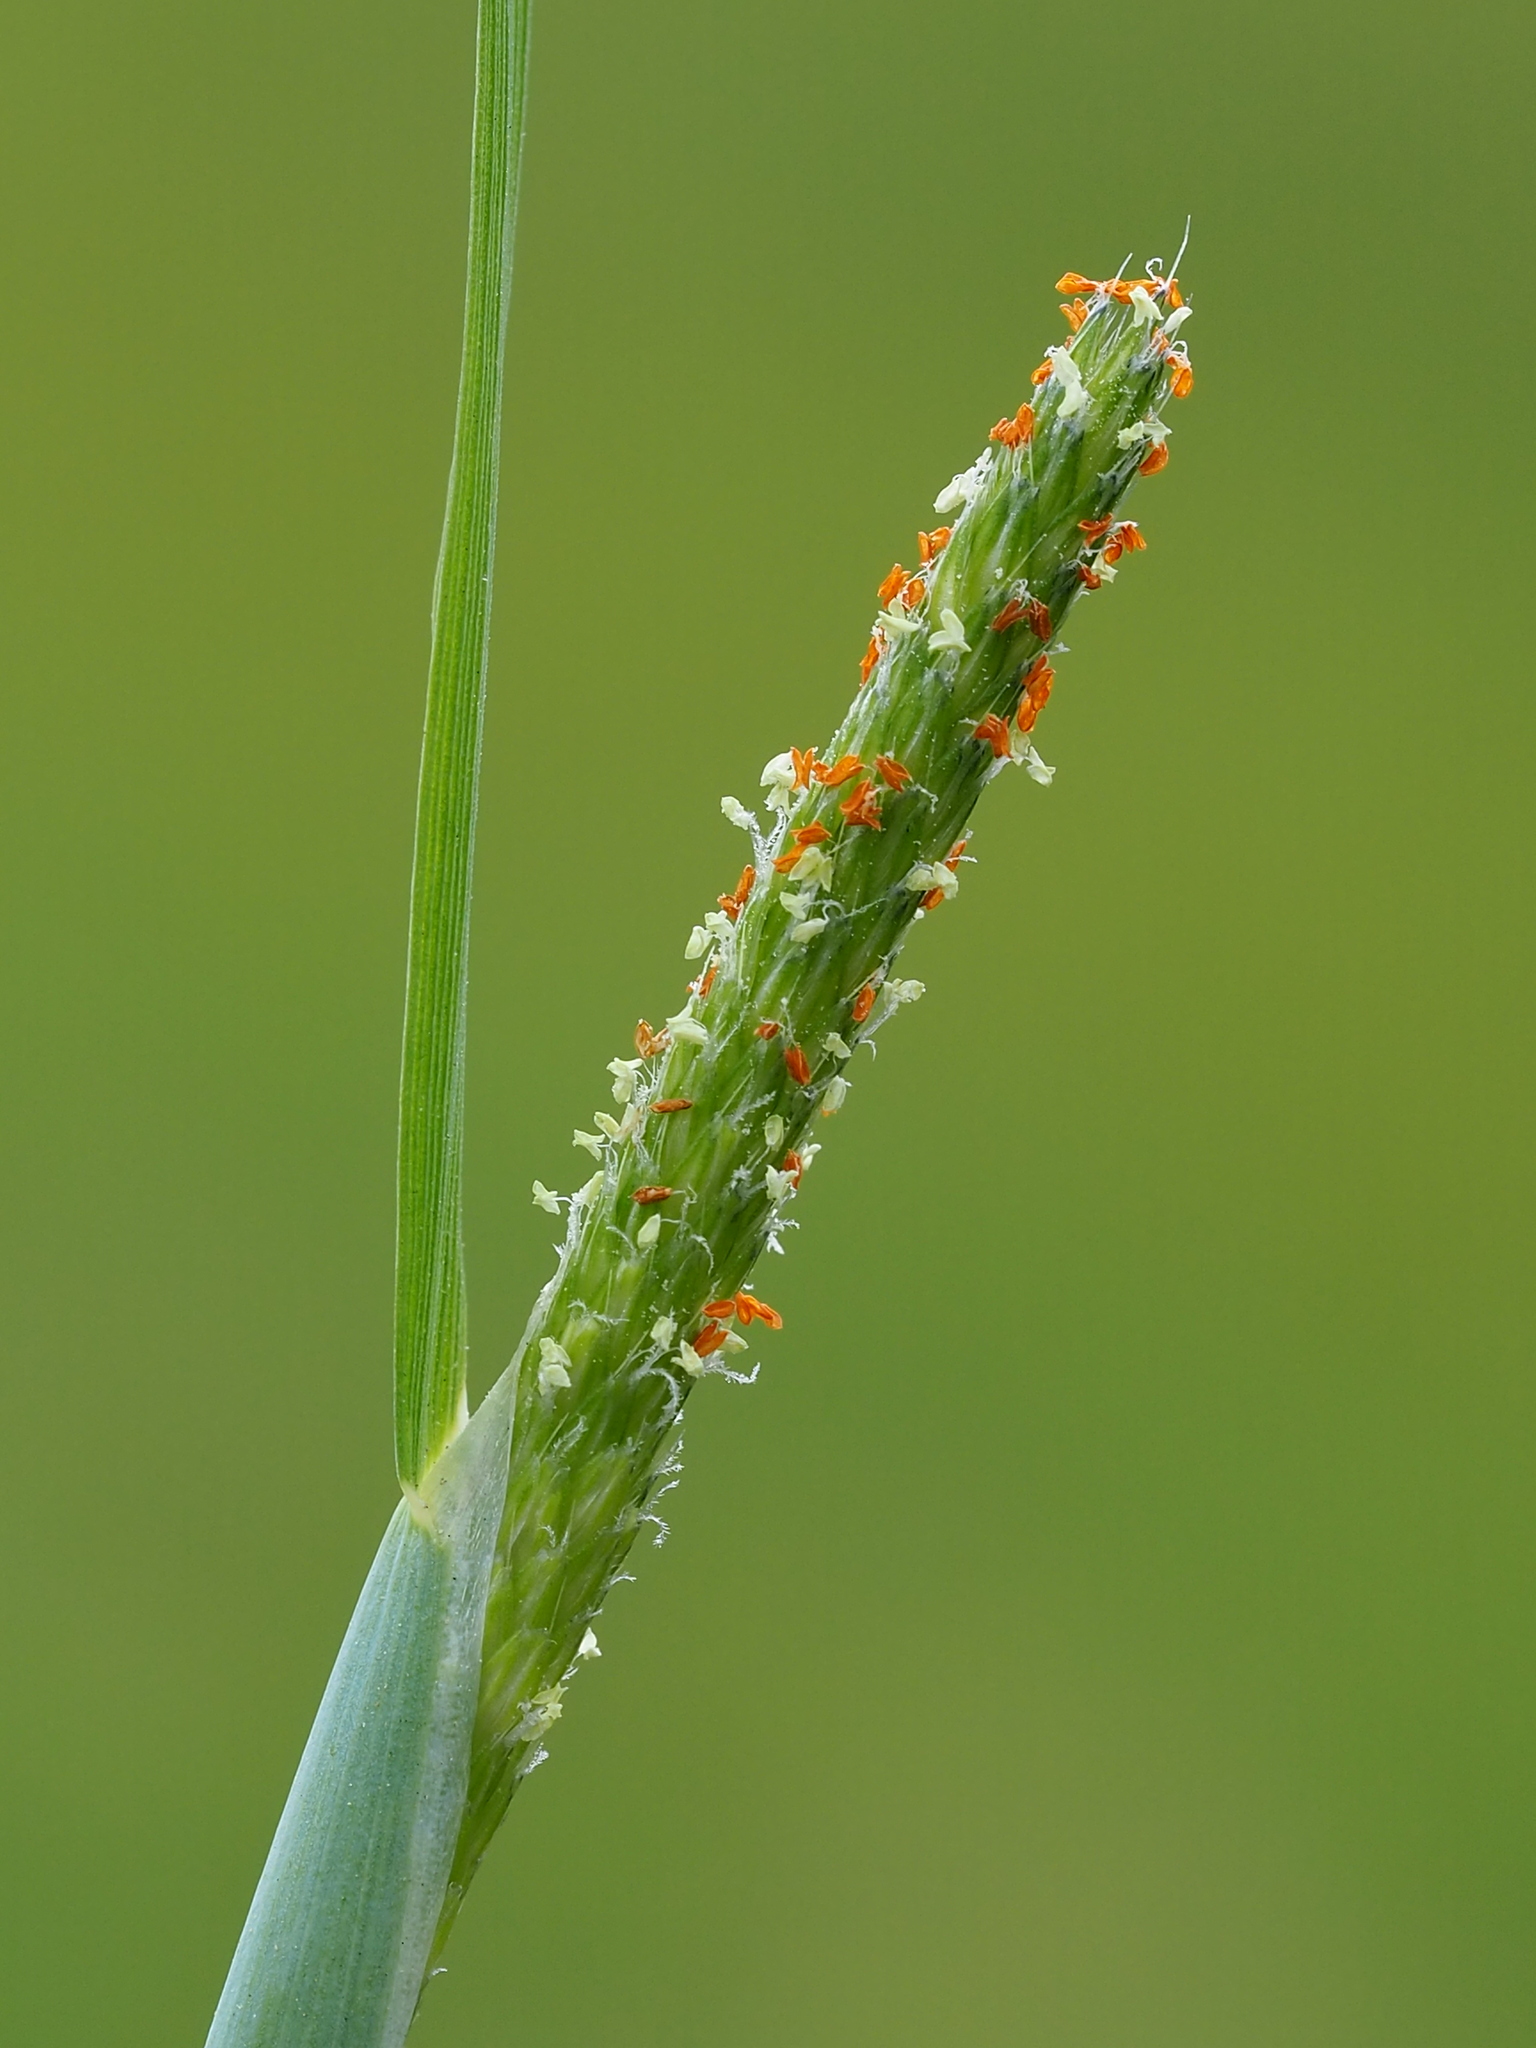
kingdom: Plantae
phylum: Tracheophyta
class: Liliopsida
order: Poales
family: Poaceae
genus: Alopecurus
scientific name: Alopecurus aequalis
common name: Orange foxtail
